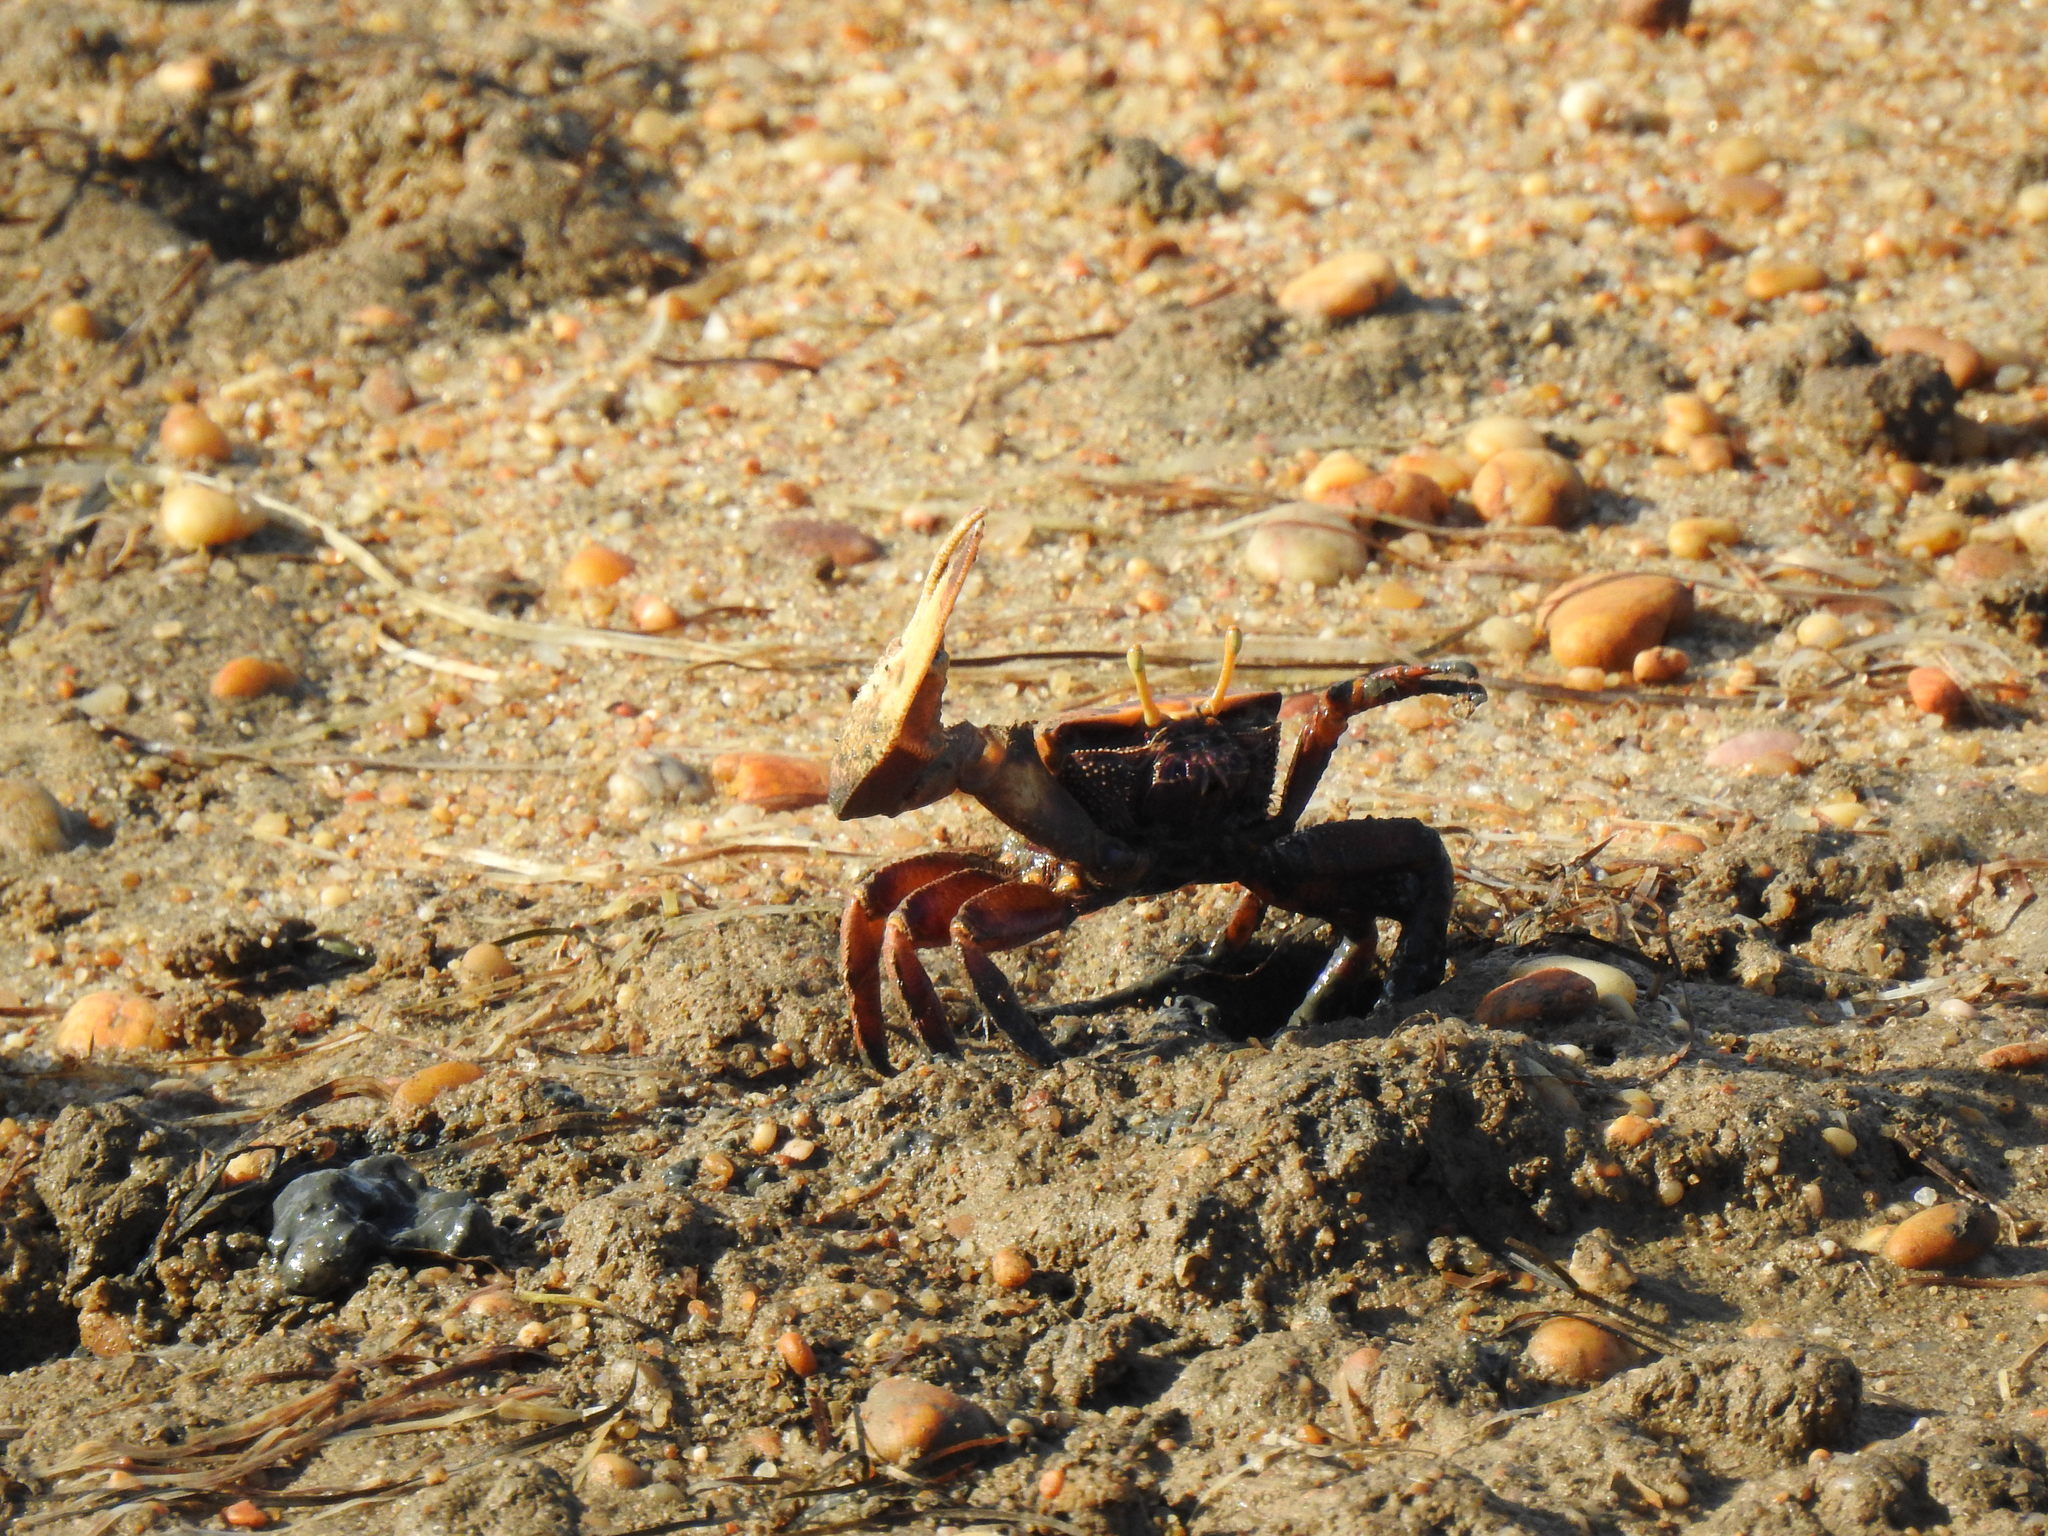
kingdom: Animalia
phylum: Arthropoda
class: Malacostraca
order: Decapoda
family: Ocypodidae
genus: Afruca
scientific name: Afruca tangeri
